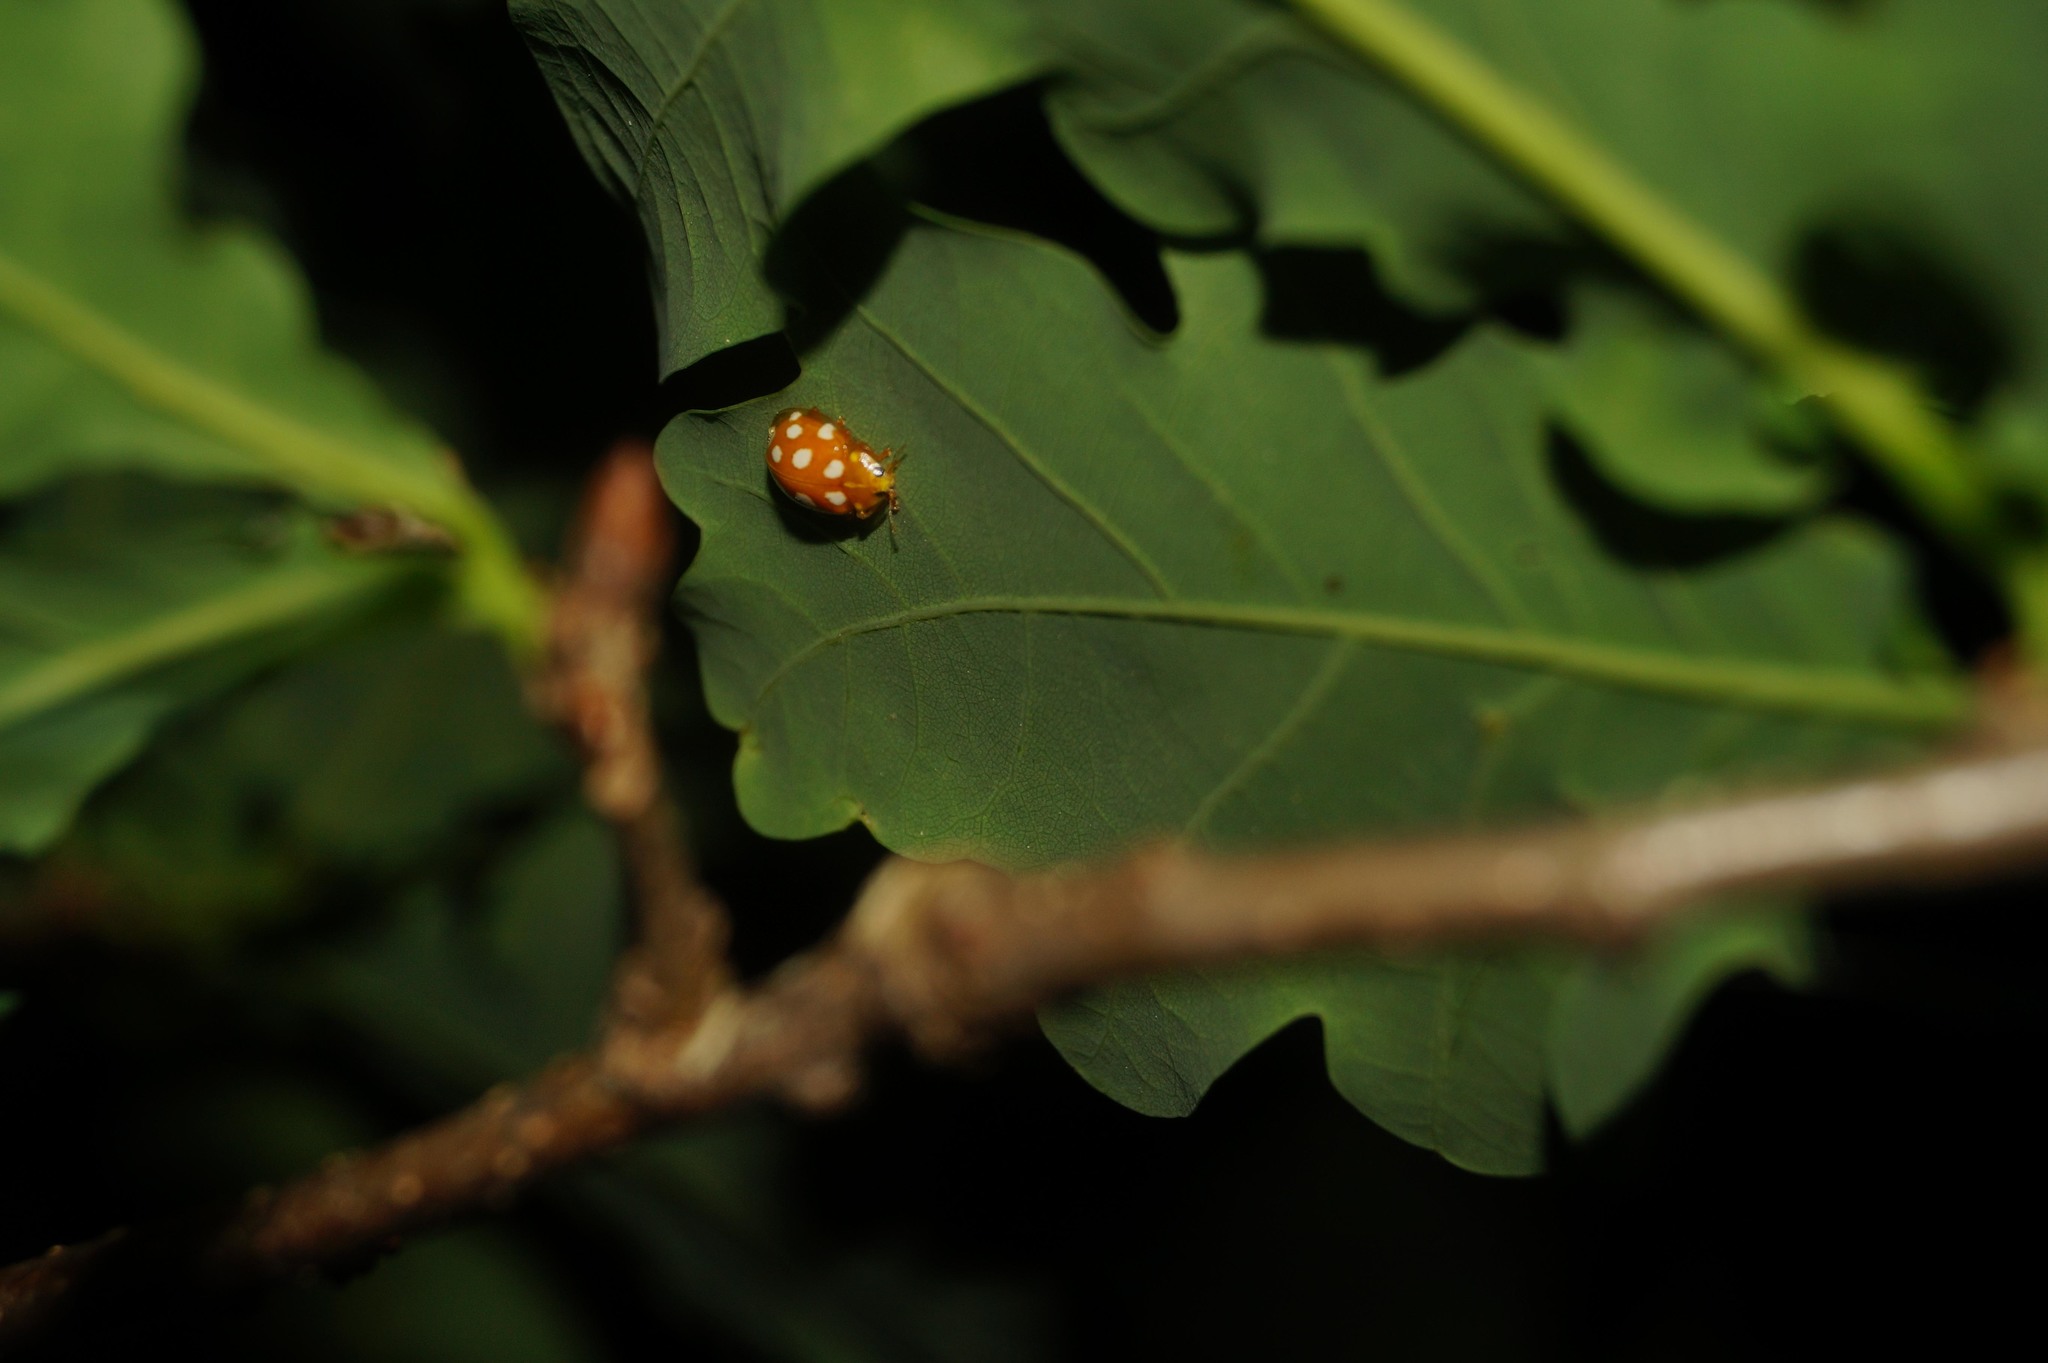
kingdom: Animalia
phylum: Arthropoda
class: Insecta
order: Coleoptera
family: Coccinellidae
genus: Halyzia
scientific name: Halyzia sedecimguttata
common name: Orange ladybird
